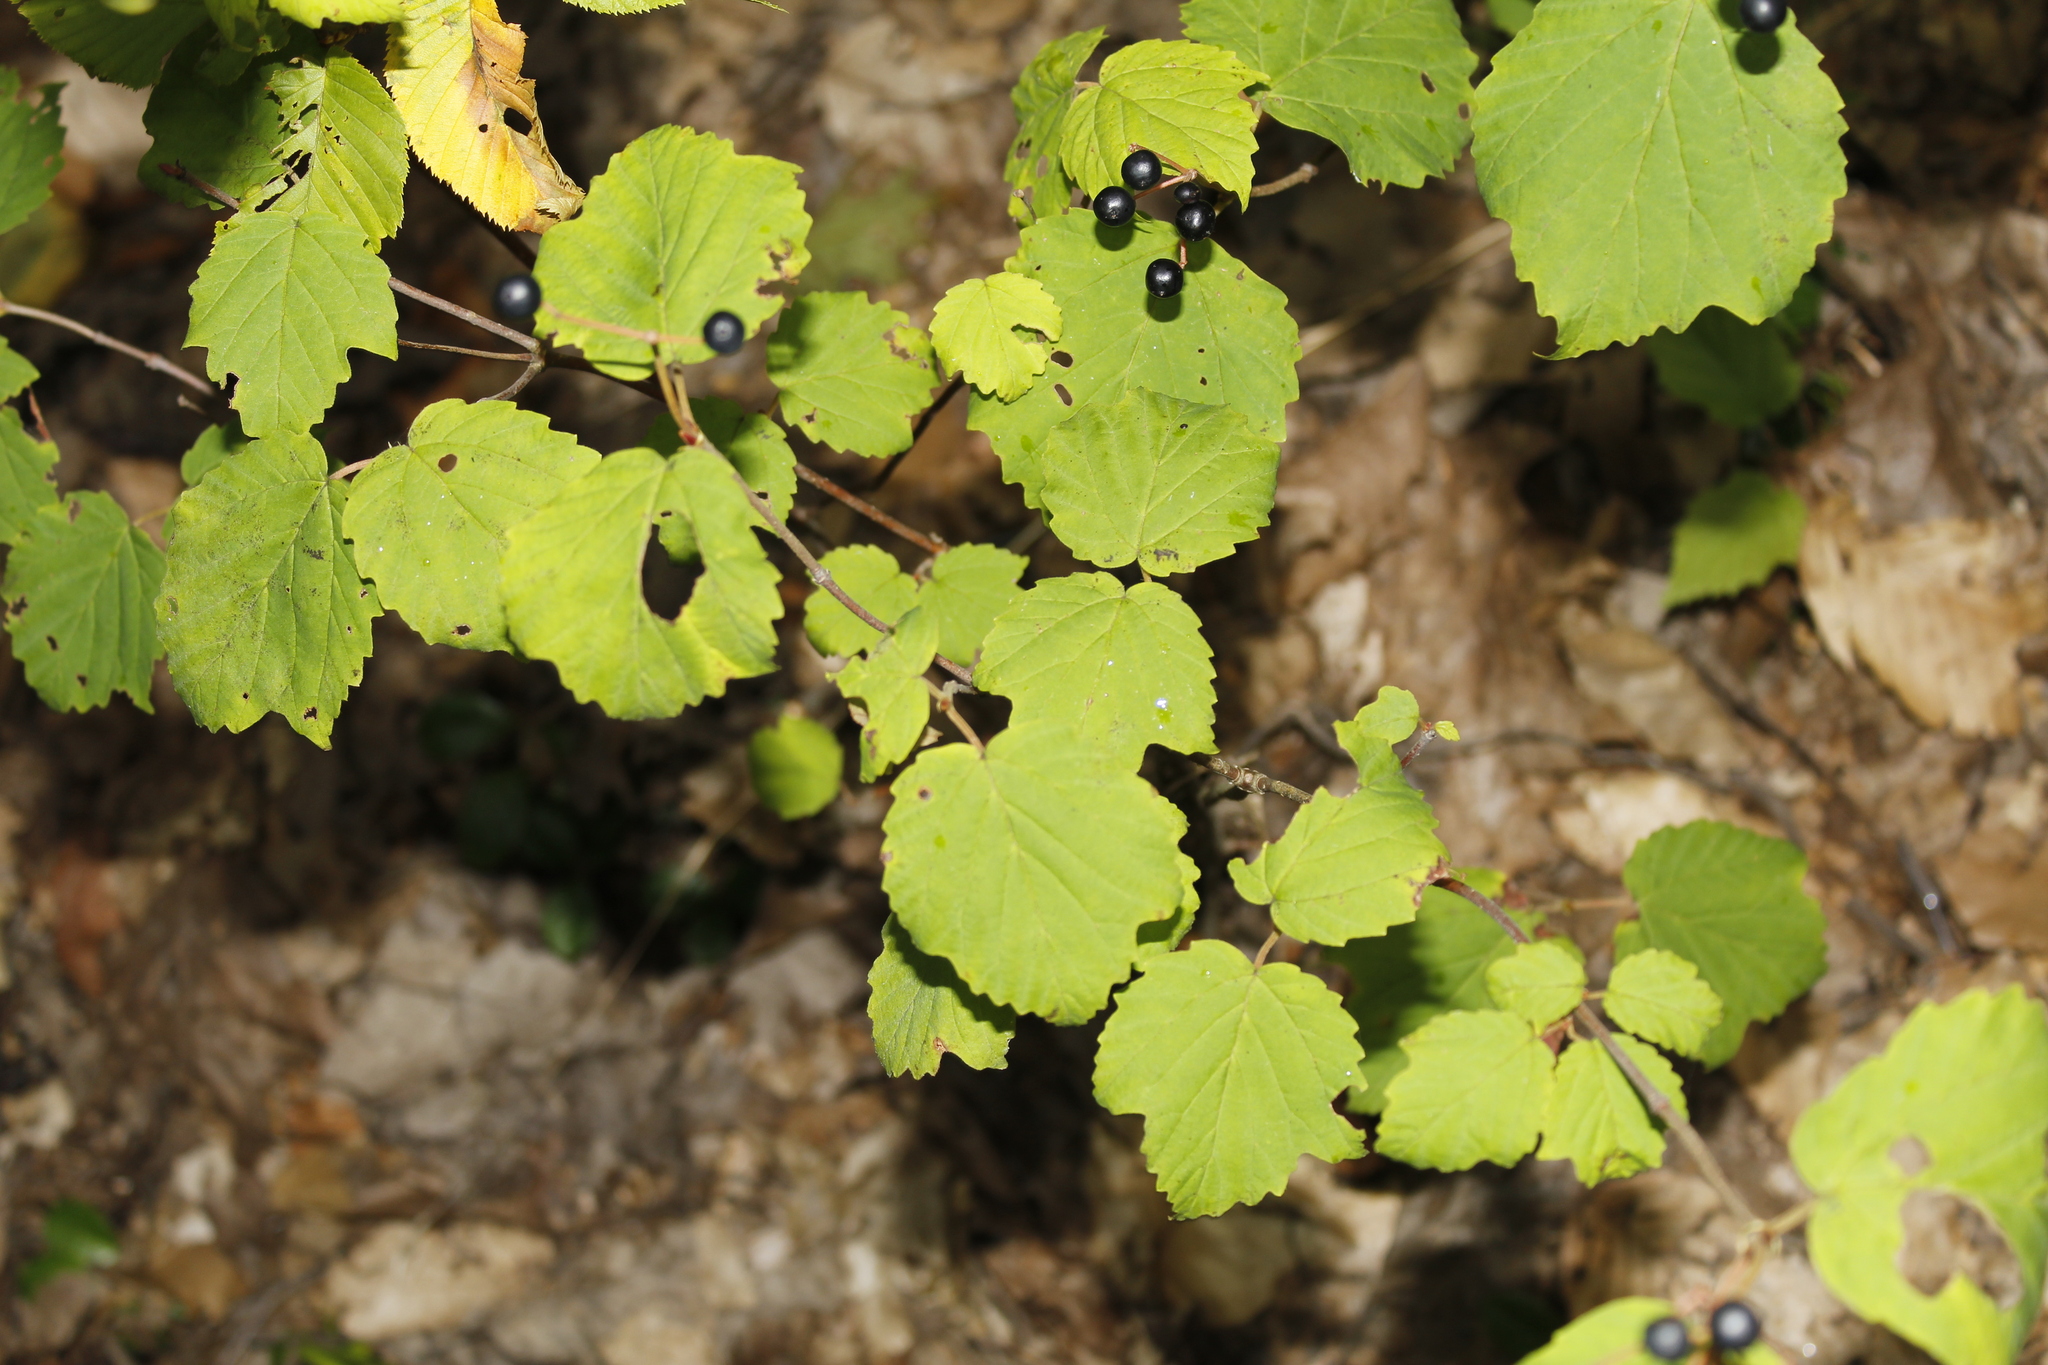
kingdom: Plantae
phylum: Tracheophyta
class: Magnoliopsida
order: Dipsacales
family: Viburnaceae
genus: Viburnum
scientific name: Viburnum acerifolium
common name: Dockmackie
